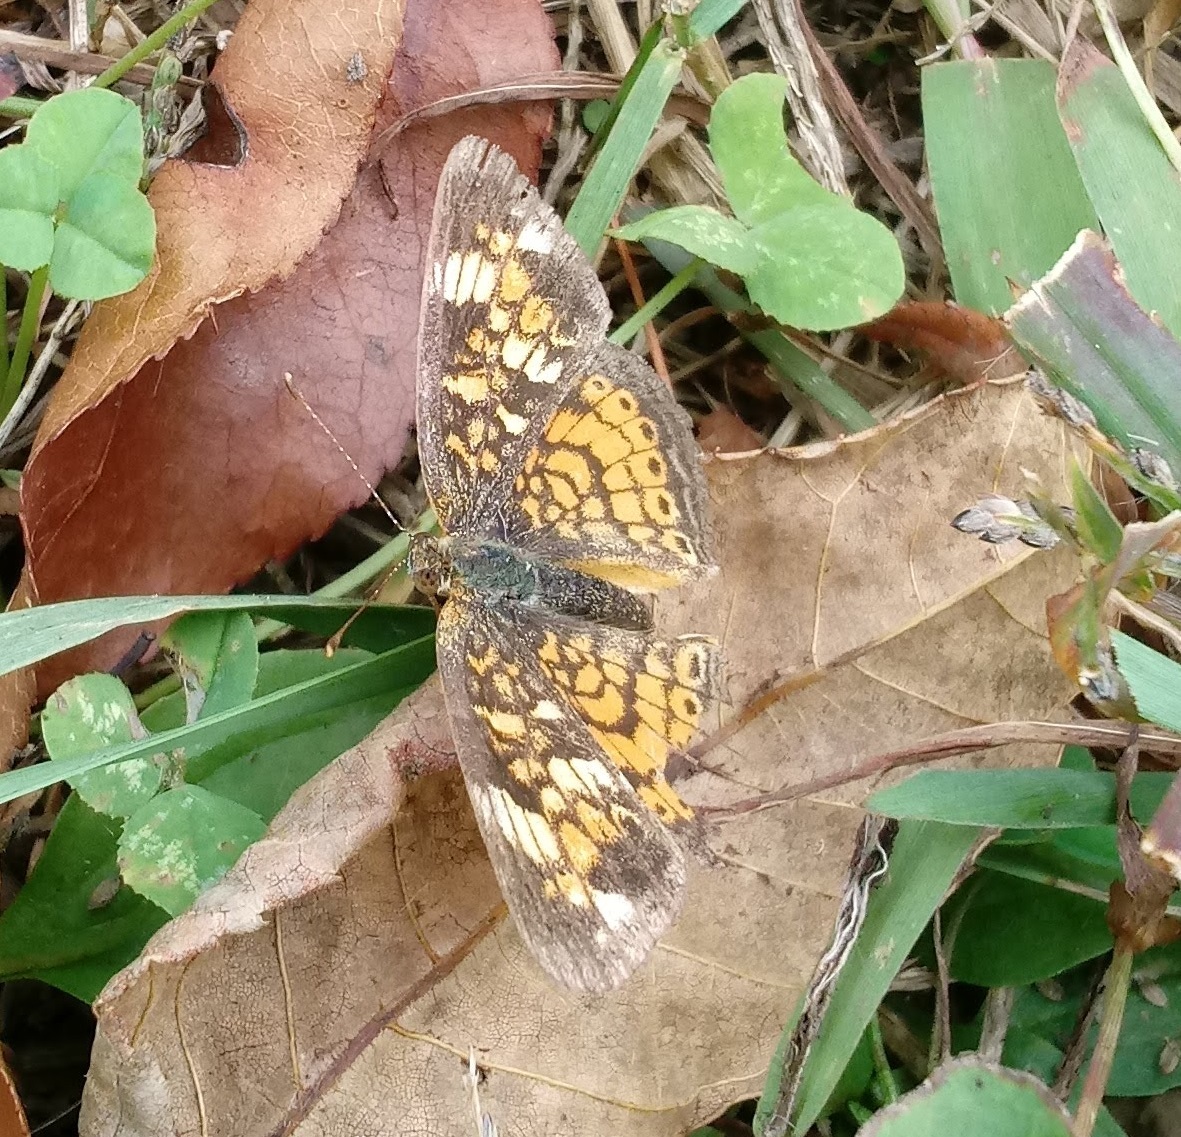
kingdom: Animalia
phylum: Arthropoda
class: Insecta
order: Lepidoptera
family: Nymphalidae
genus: Phyciodes
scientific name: Phyciodes tharos
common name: Pearl crescent
